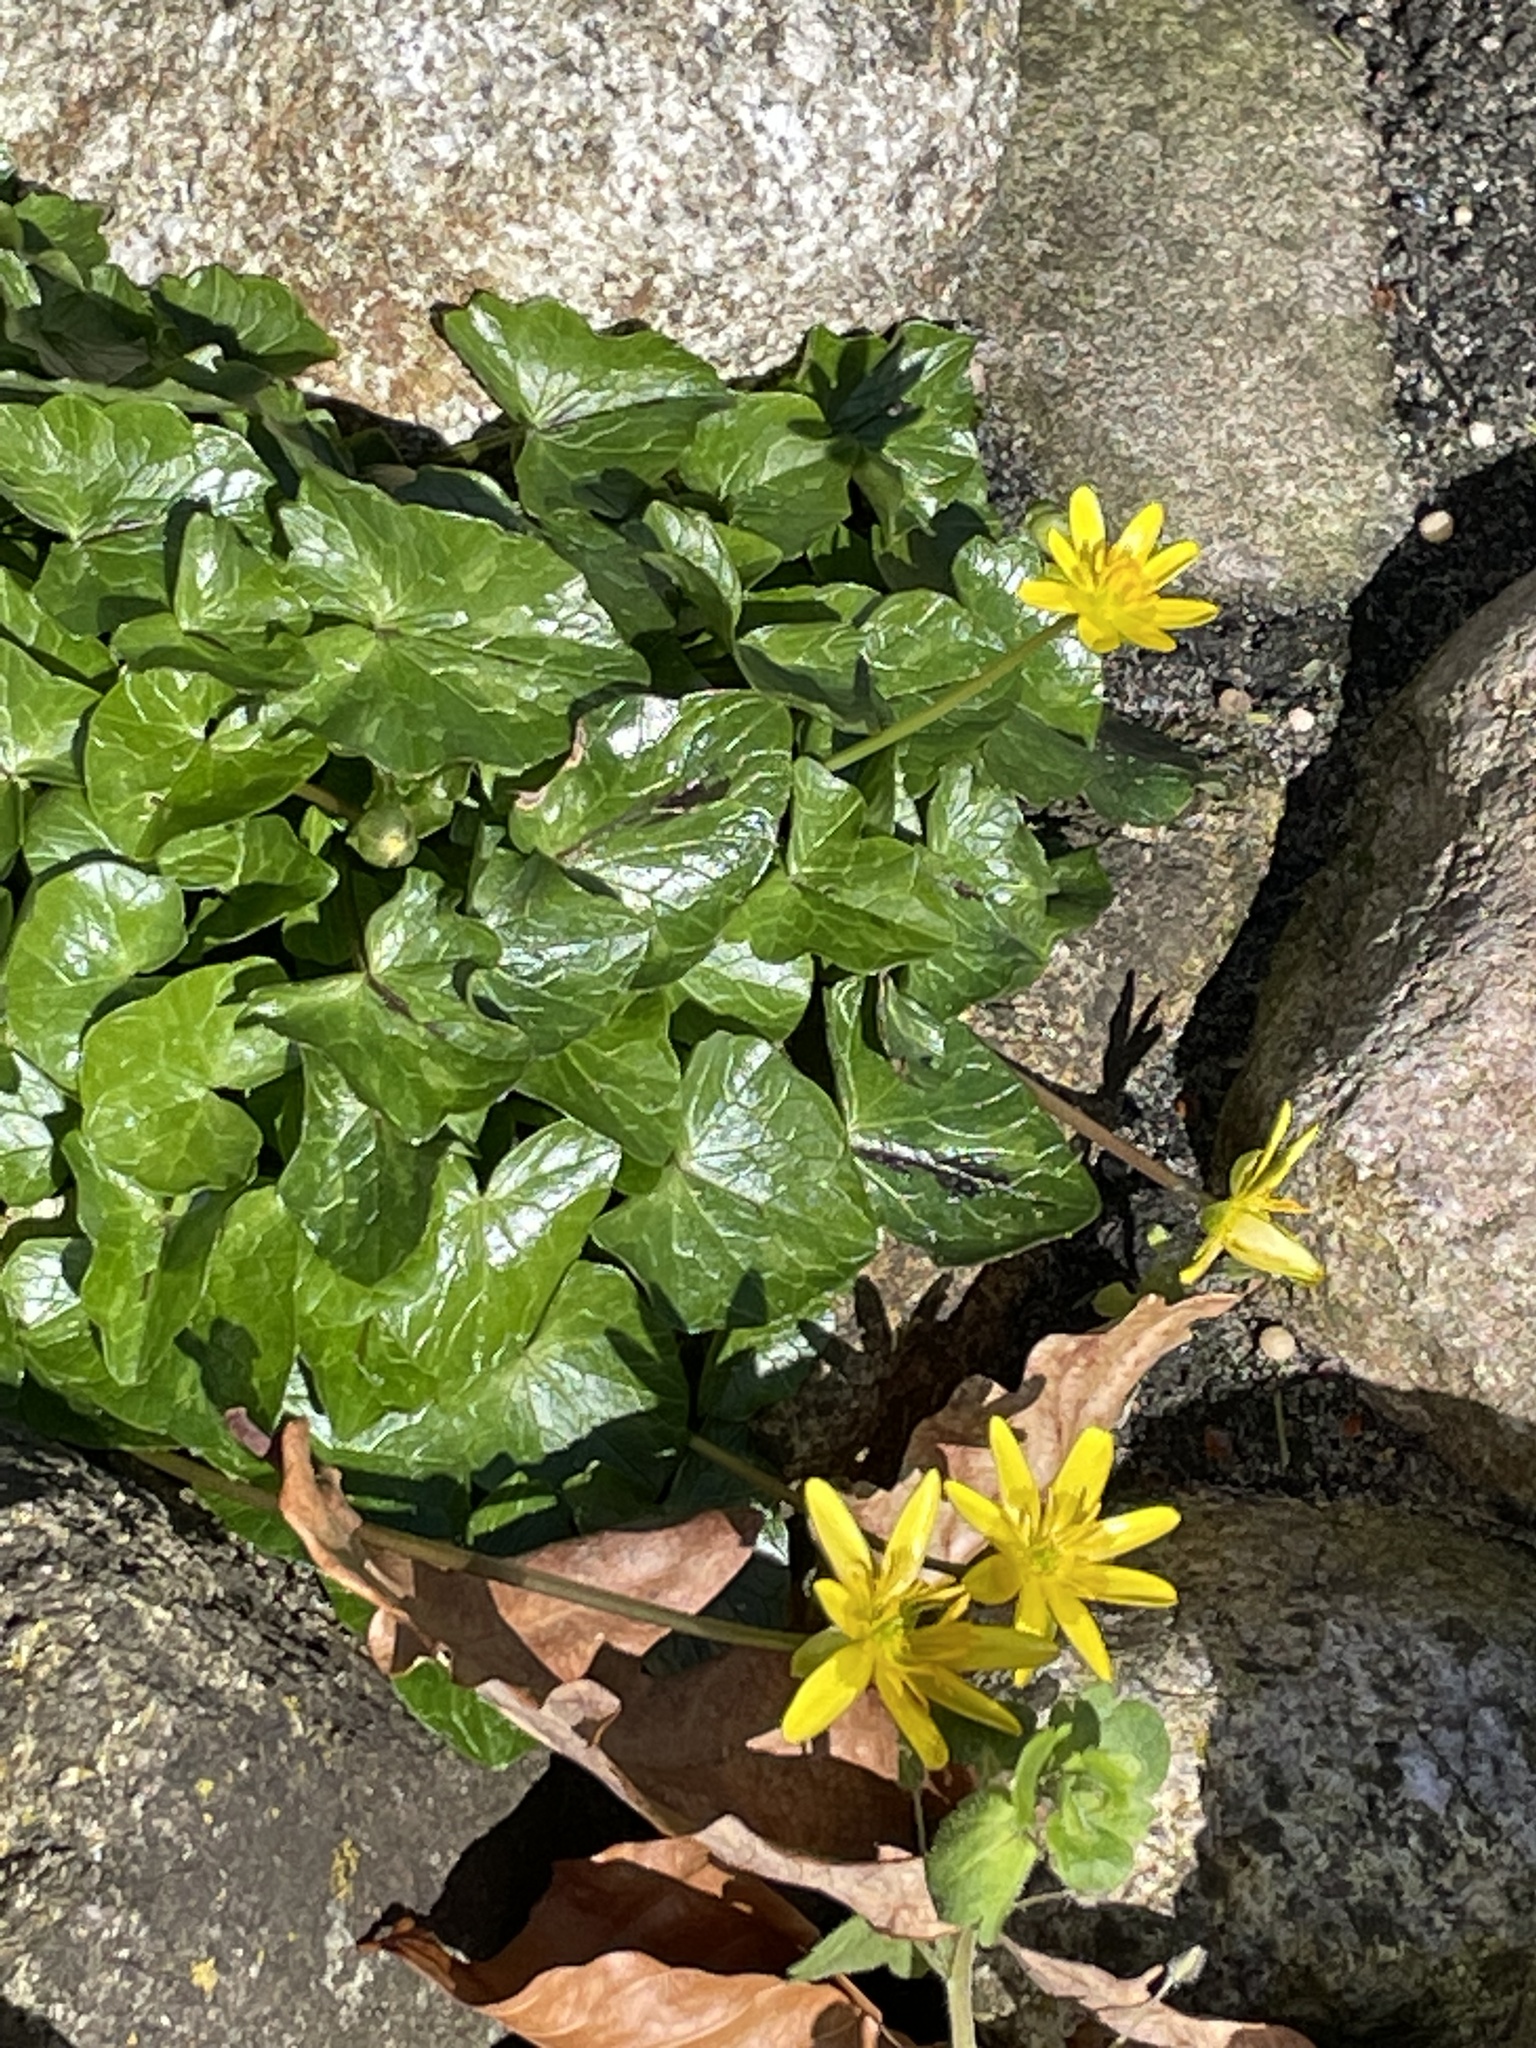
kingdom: Plantae
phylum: Tracheophyta
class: Magnoliopsida
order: Ranunculales
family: Ranunculaceae
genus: Ficaria
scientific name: Ficaria verna
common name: Lesser celandine
